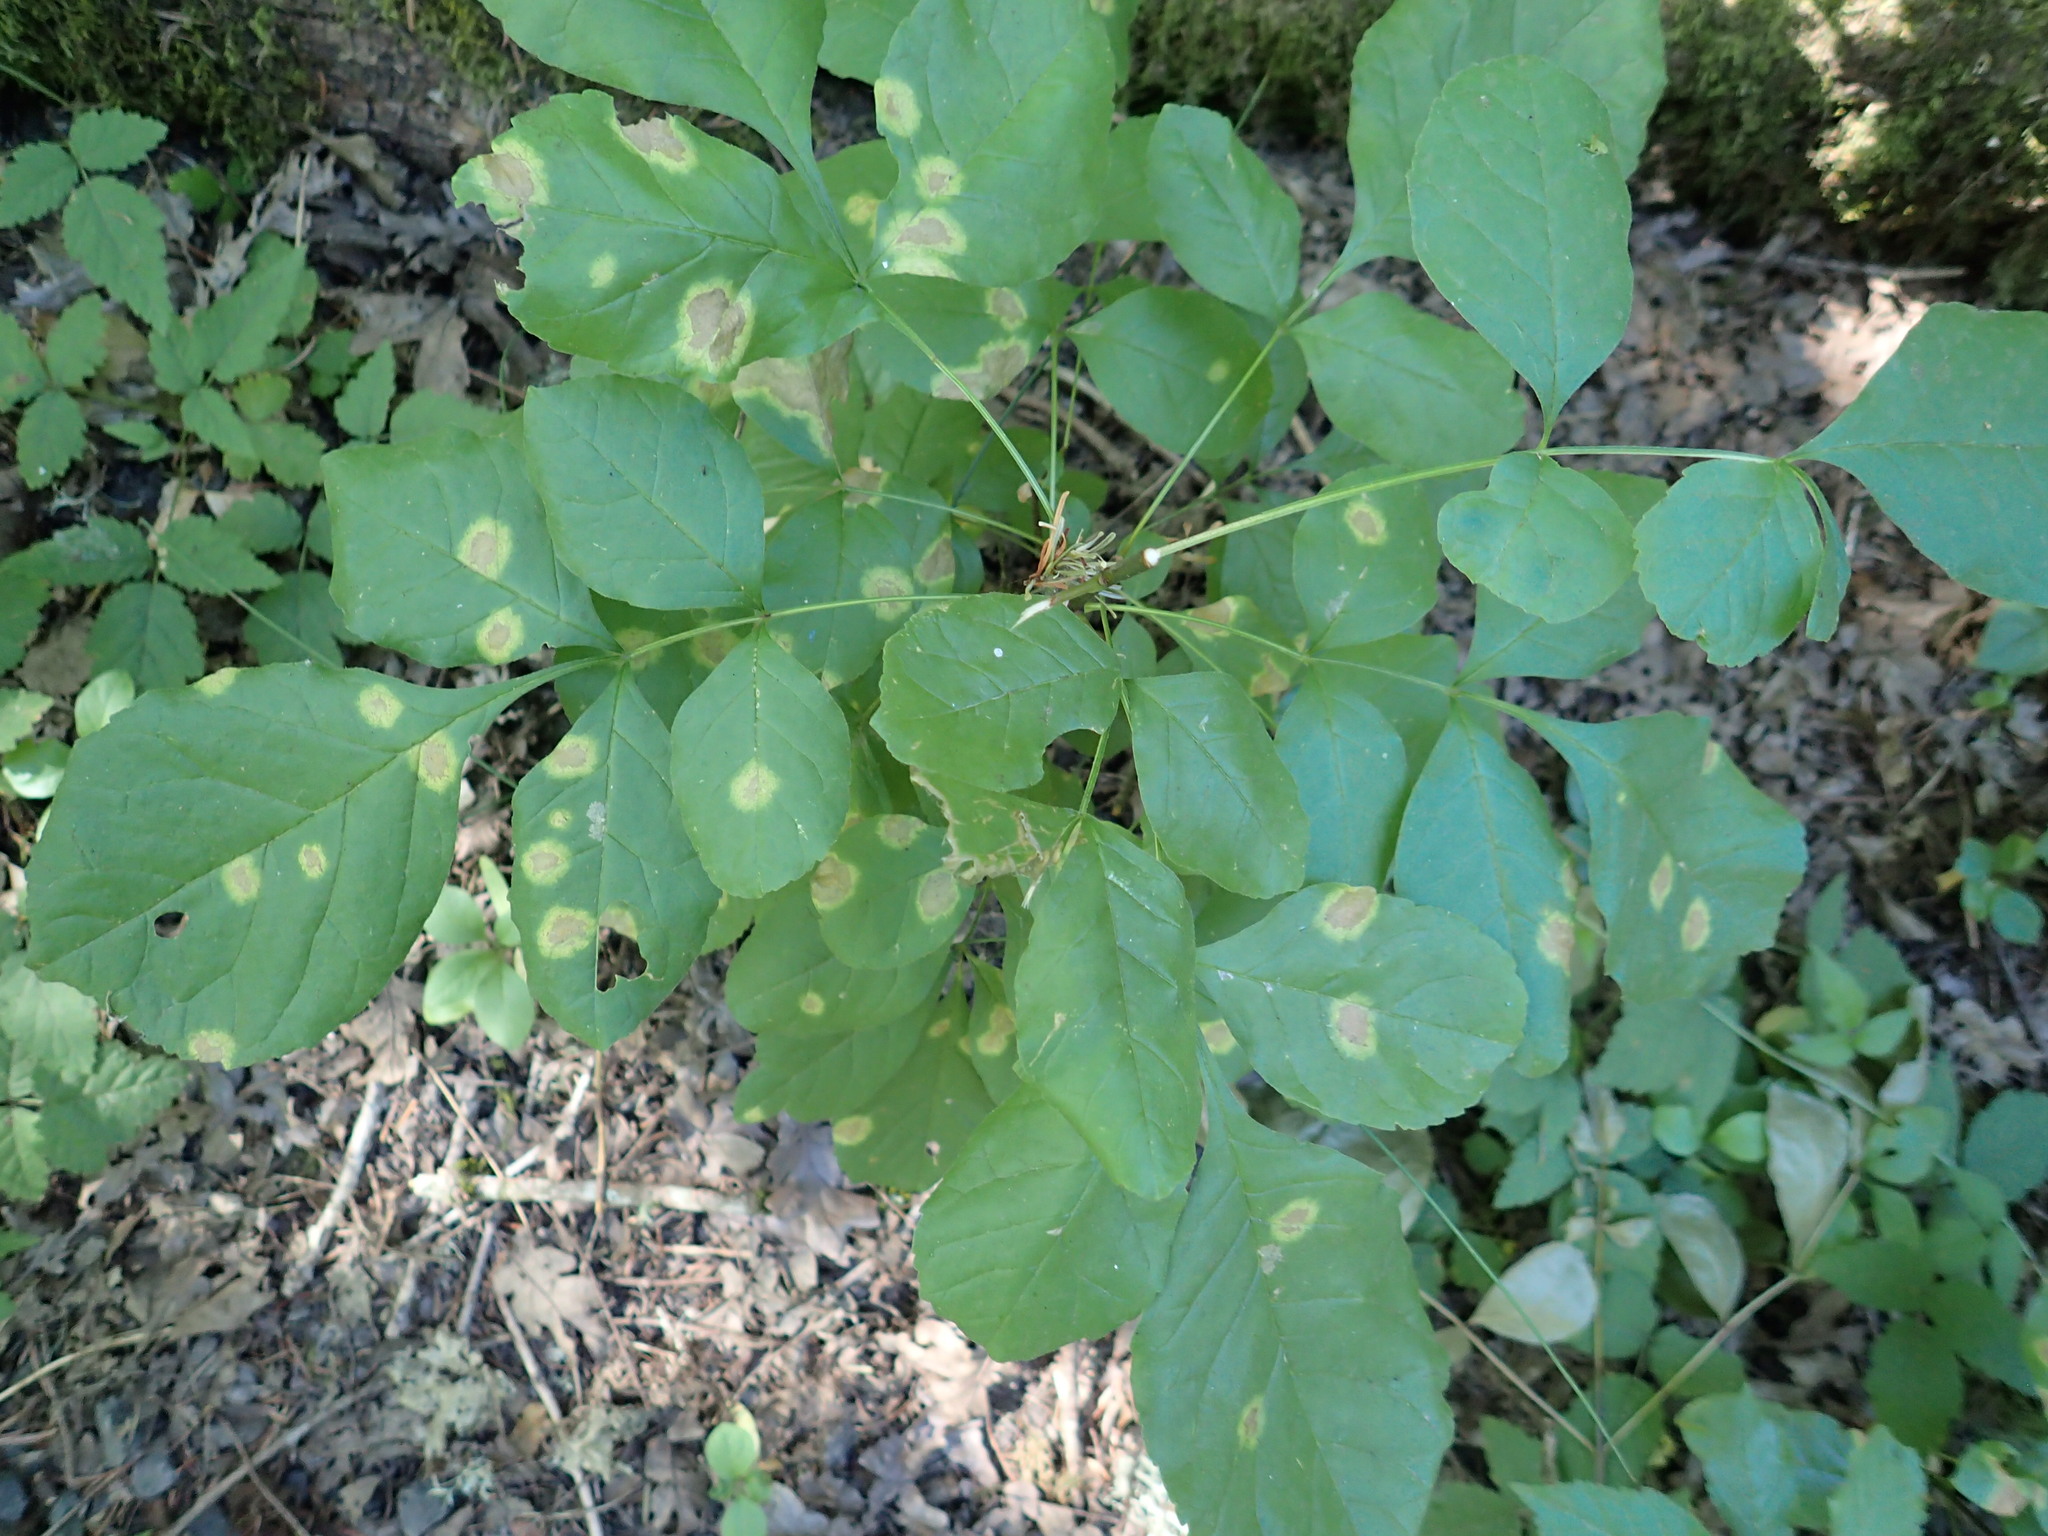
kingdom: Plantae
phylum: Tracheophyta
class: Magnoliopsida
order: Lamiales
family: Oleaceae
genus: Fraxinus
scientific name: Fraxinus latifolia
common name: Oregon ash
